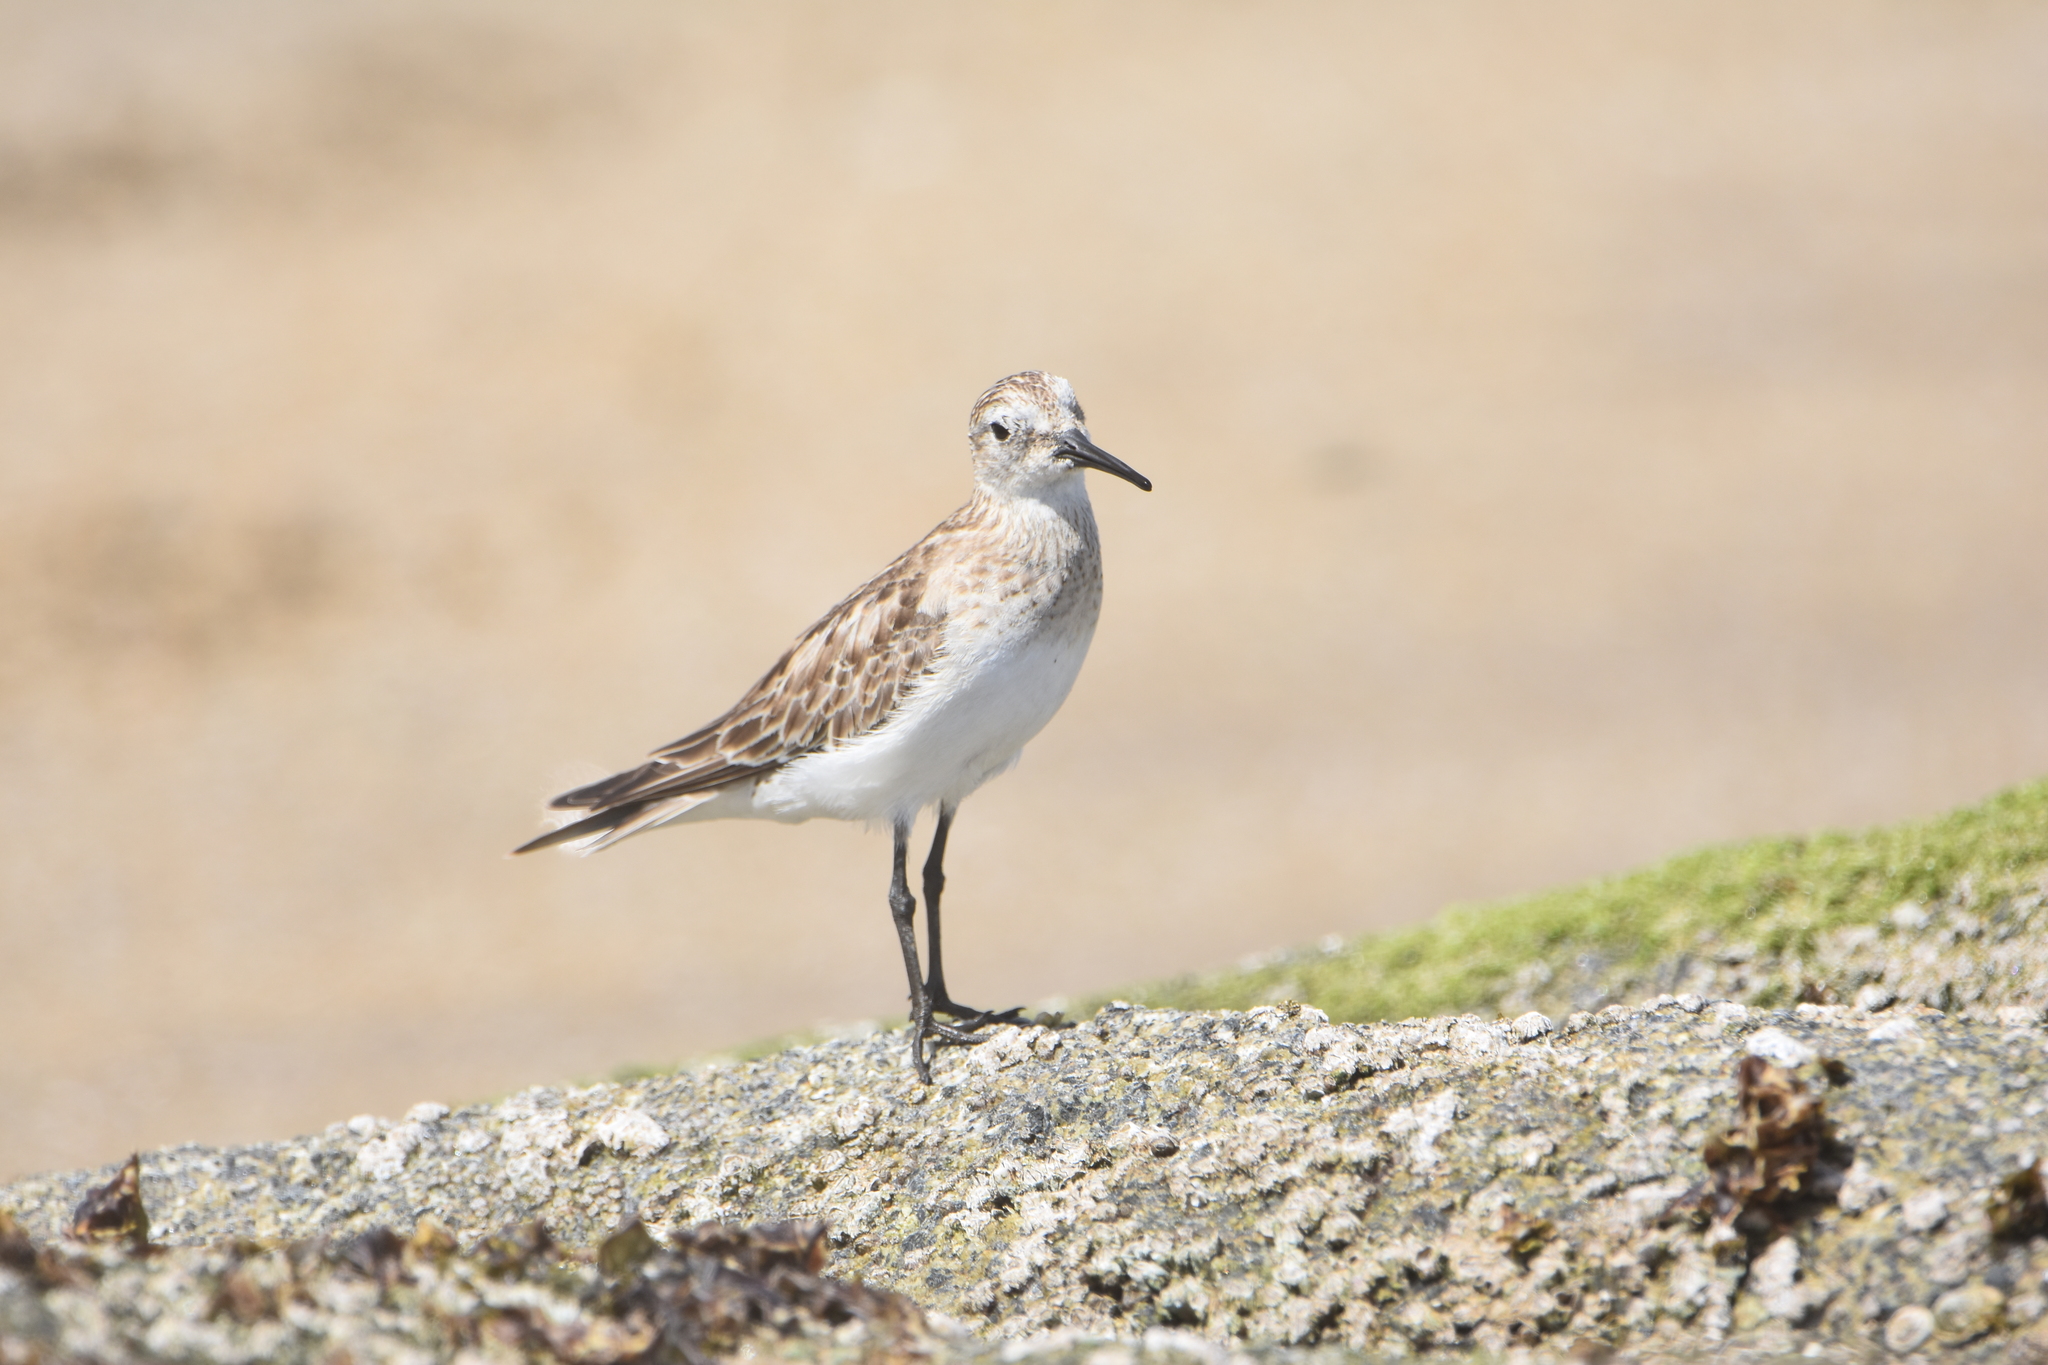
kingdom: Animalia
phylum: Chordata
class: Aves
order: Charadriiformes
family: Scolopacidae
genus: Calidris
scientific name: Calidris bairdii
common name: Baird's sandpiper
